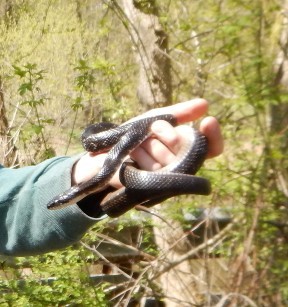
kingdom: Animalia
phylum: Chordata
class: Squamata
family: Colubridae
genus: Pantherophis
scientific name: Pantherophis alleghaniensis
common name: Eastern rat snake
